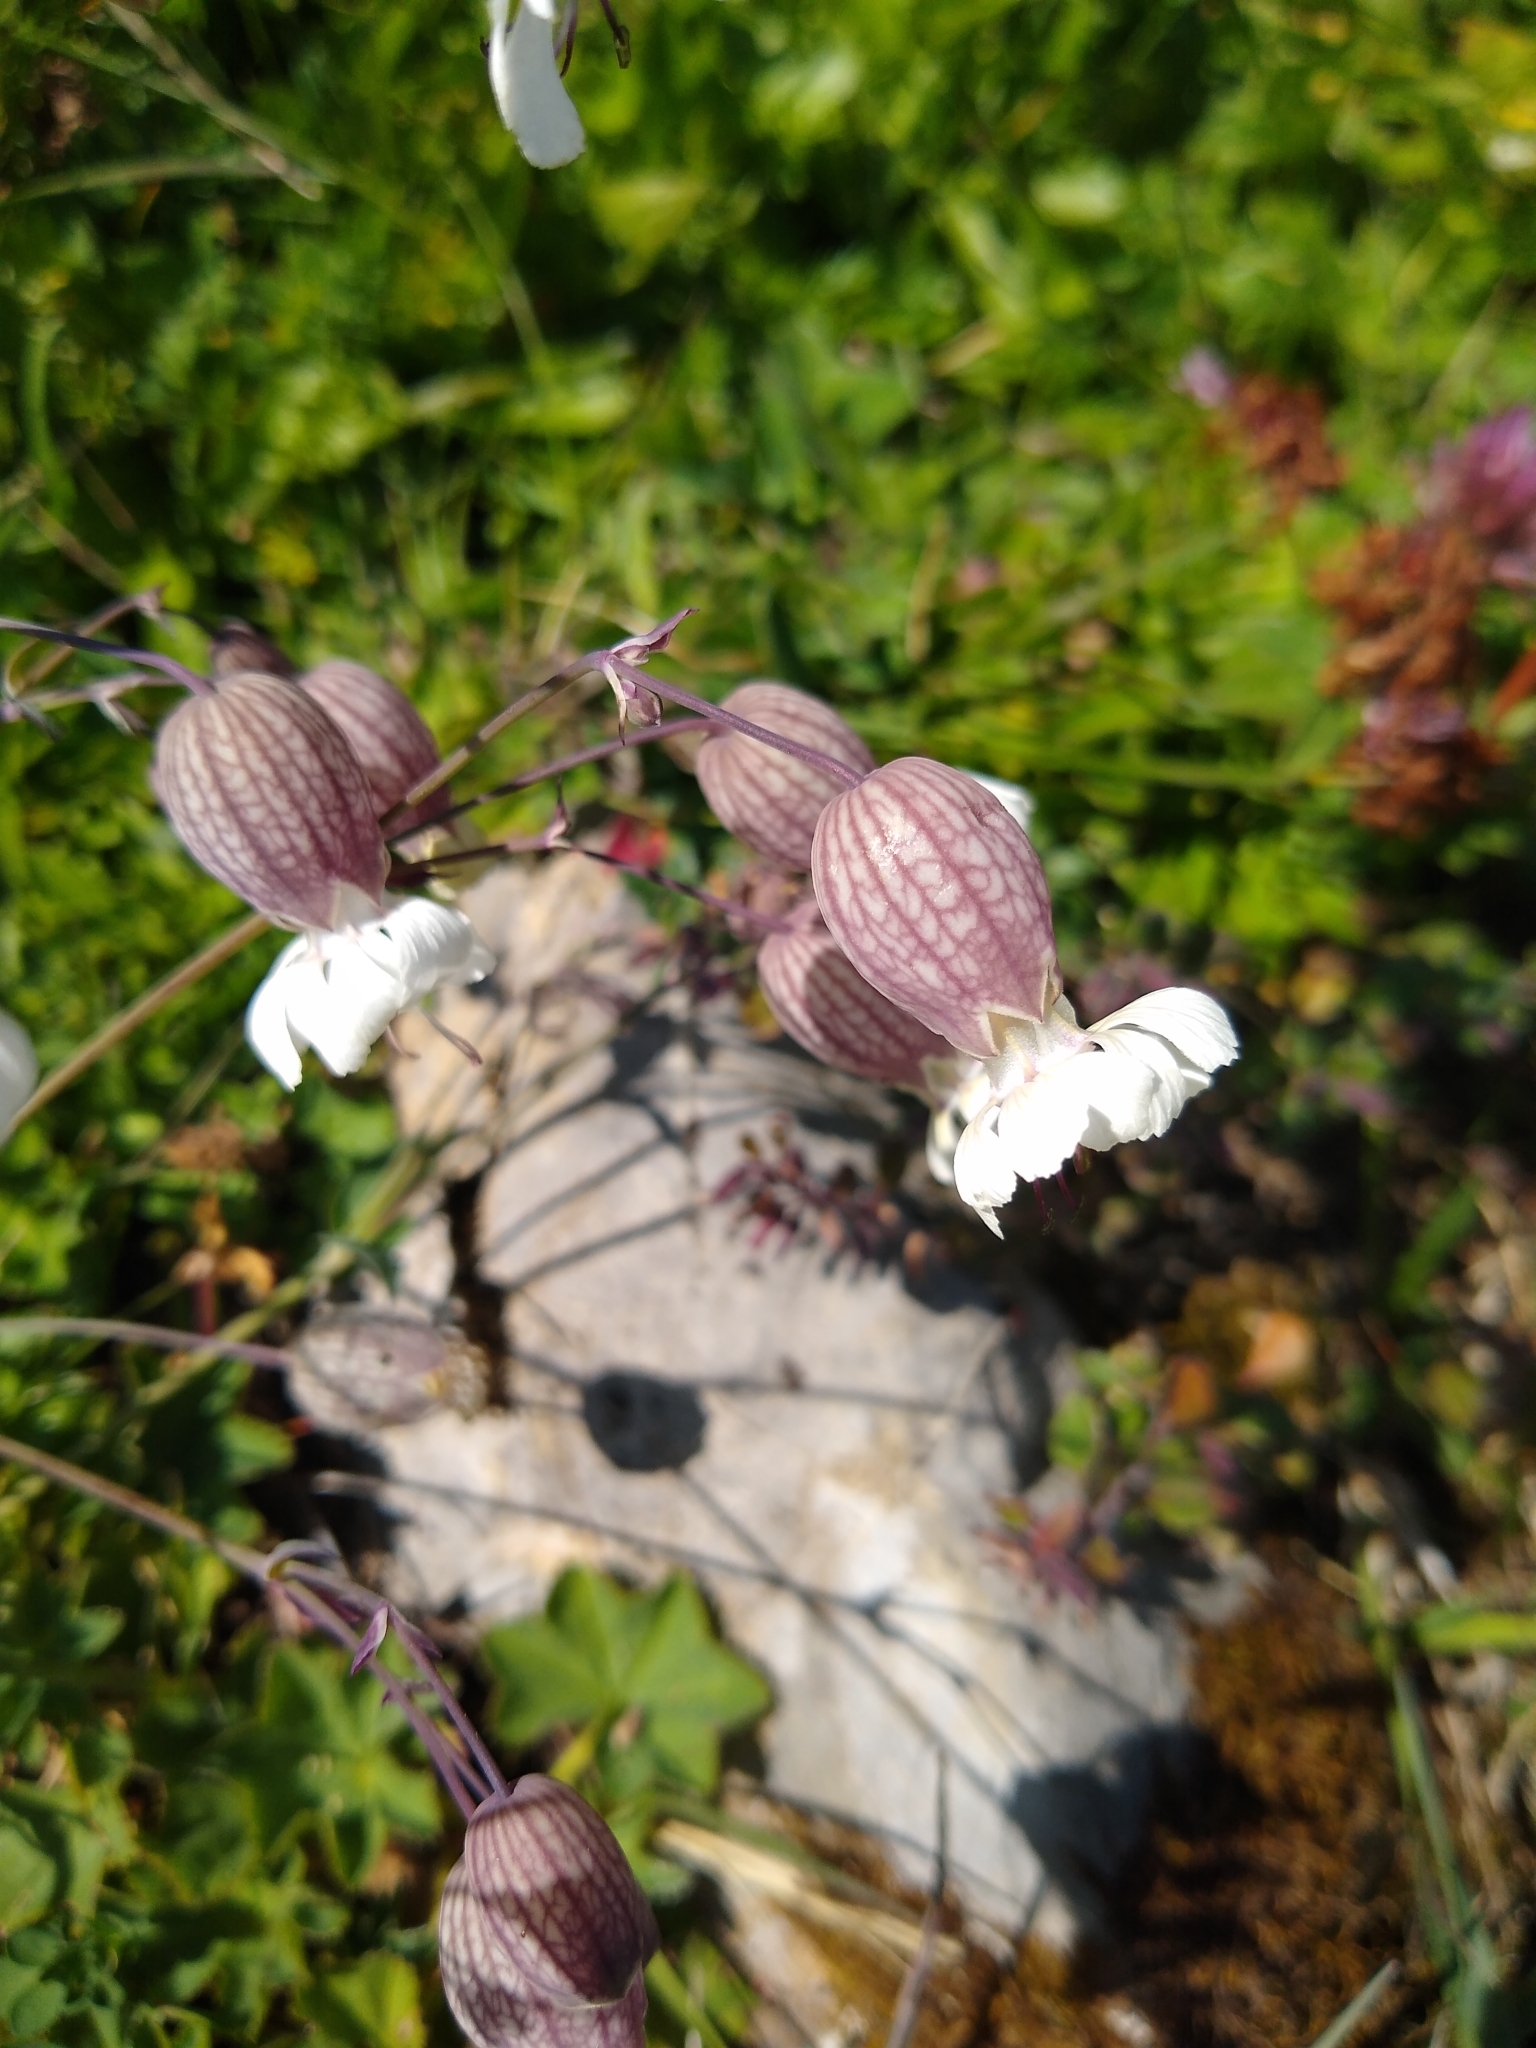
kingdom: Plantae
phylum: Tracheophyta
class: Magnoliopsida
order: Caryophyllales
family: Caryophyllaceae
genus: Silene
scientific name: Silene vulgaris
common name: Bladder campion
